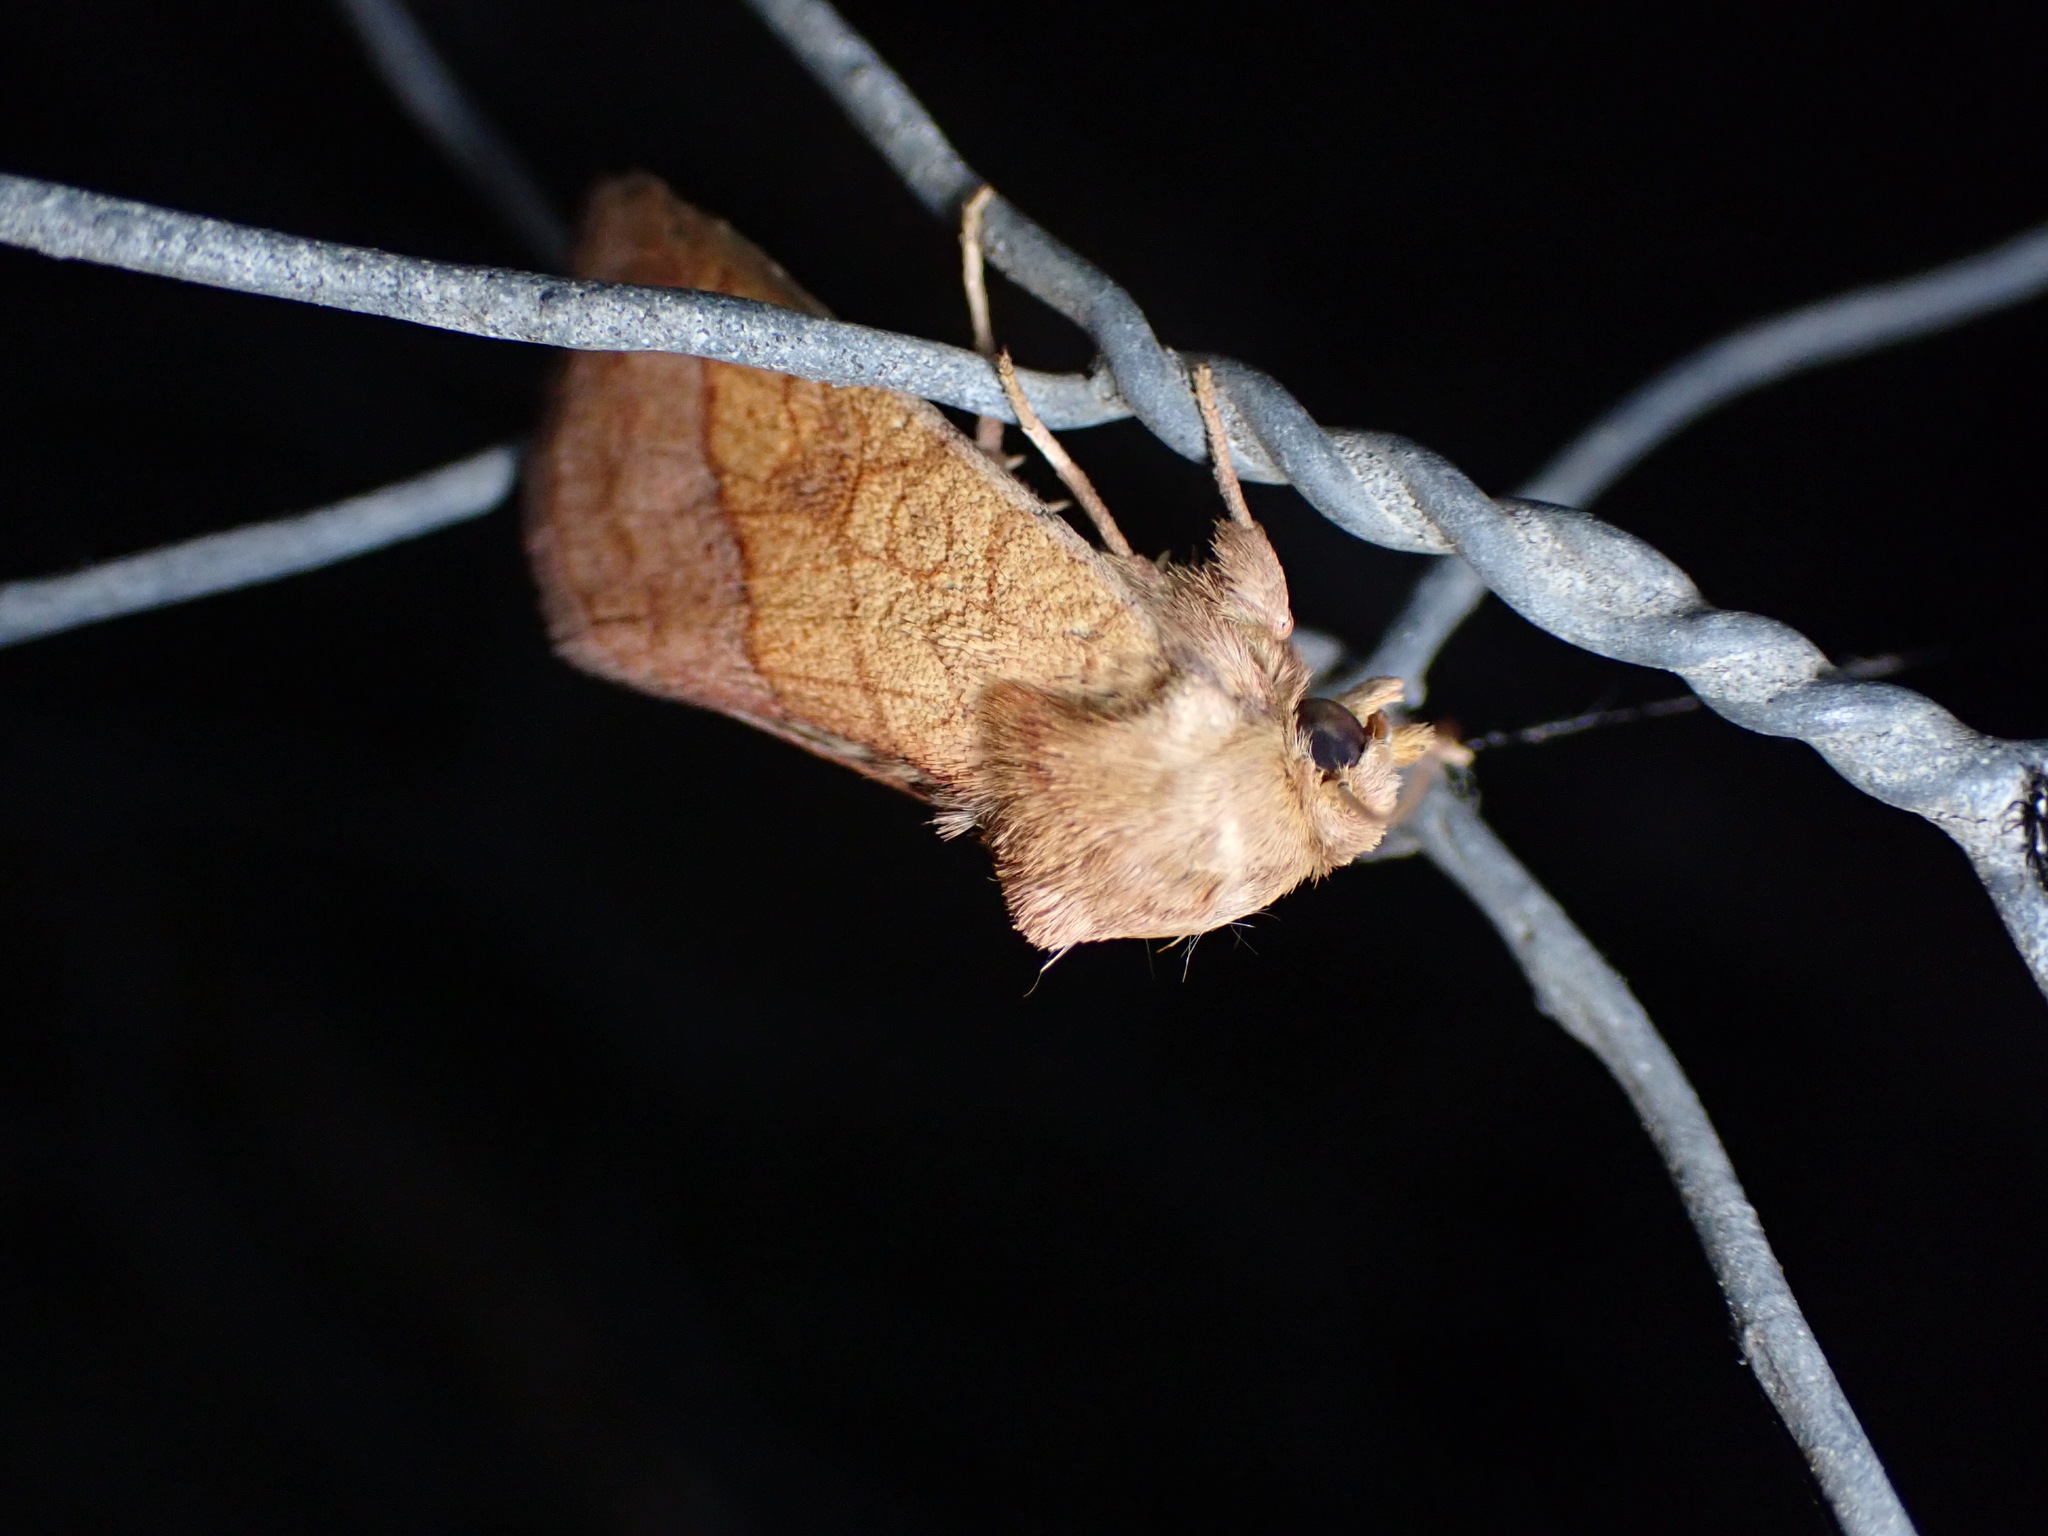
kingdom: Animalia
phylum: Arthropoda
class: Insecta
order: Lepidoptera
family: Noctuidae
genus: Pyrrhia
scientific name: Pyrrhia umbra
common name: Bordered sallow
